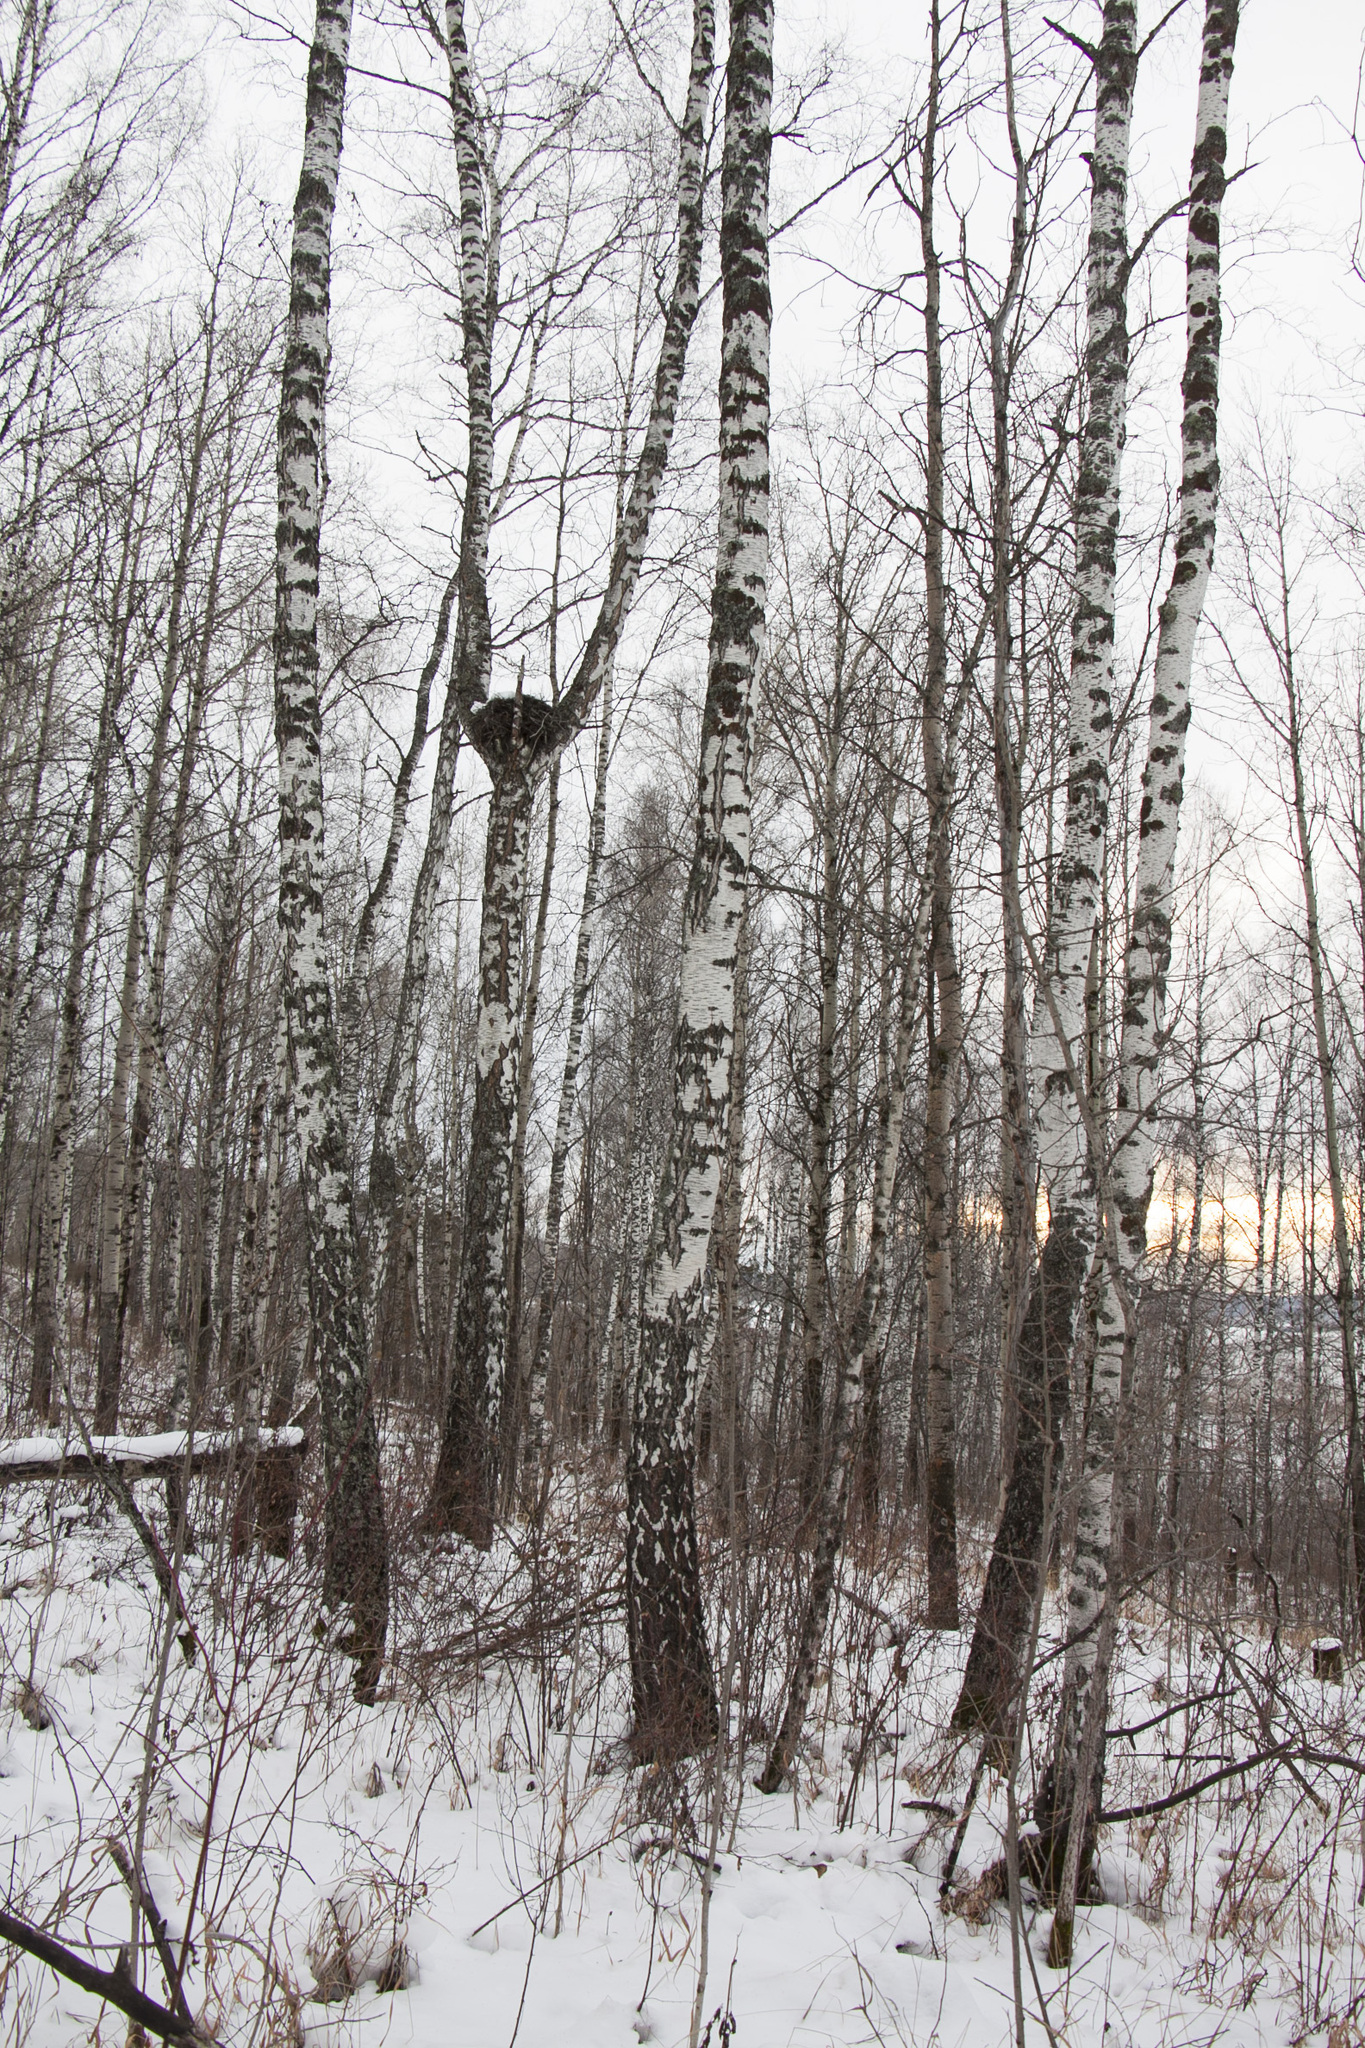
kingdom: Plantae
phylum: Tracheophyta
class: Magnoliopsida
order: Fagales
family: Betulaceae
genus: Betula
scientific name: Betula pendula
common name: Silver birch
